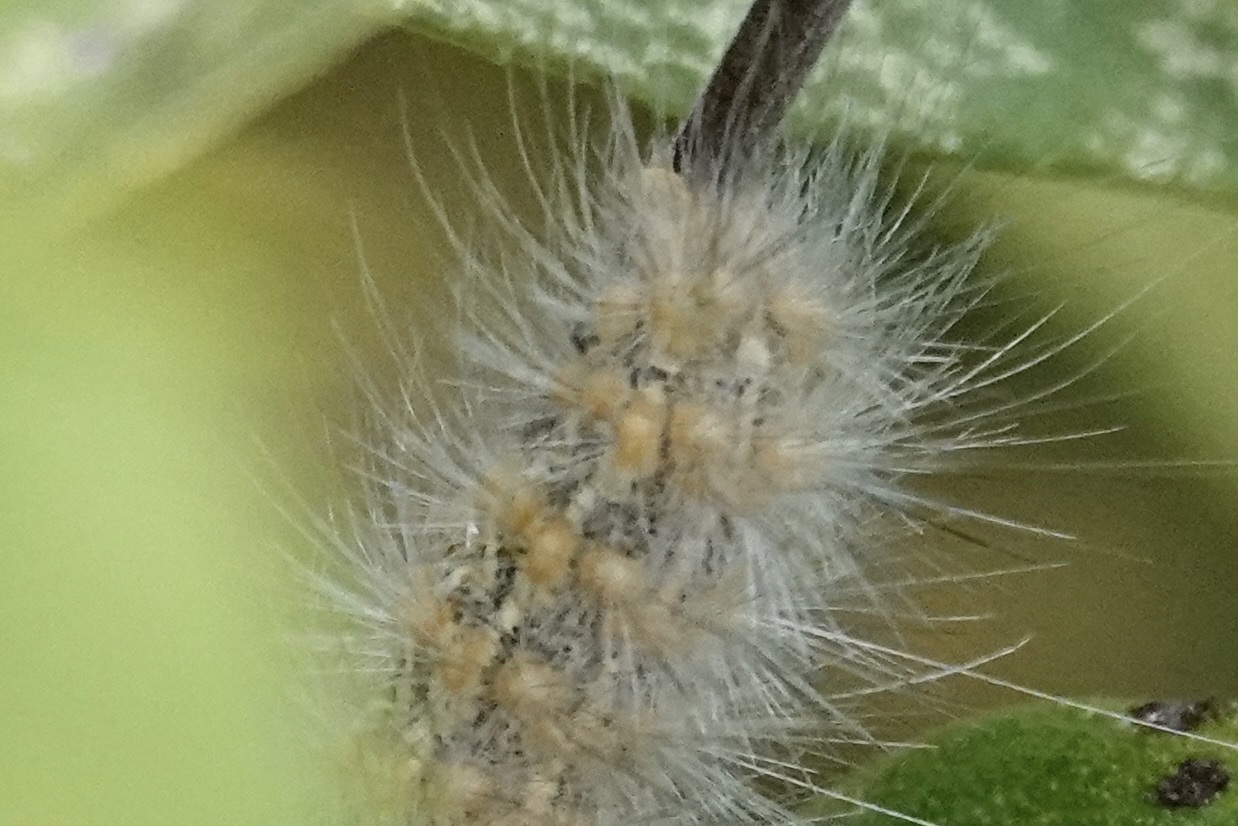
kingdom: Animalia
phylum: Arthropoda
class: Insecta
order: Lepidoptera
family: Erebidae
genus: Estigmene
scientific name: Estigmene acrea
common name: Salt marsh moth
